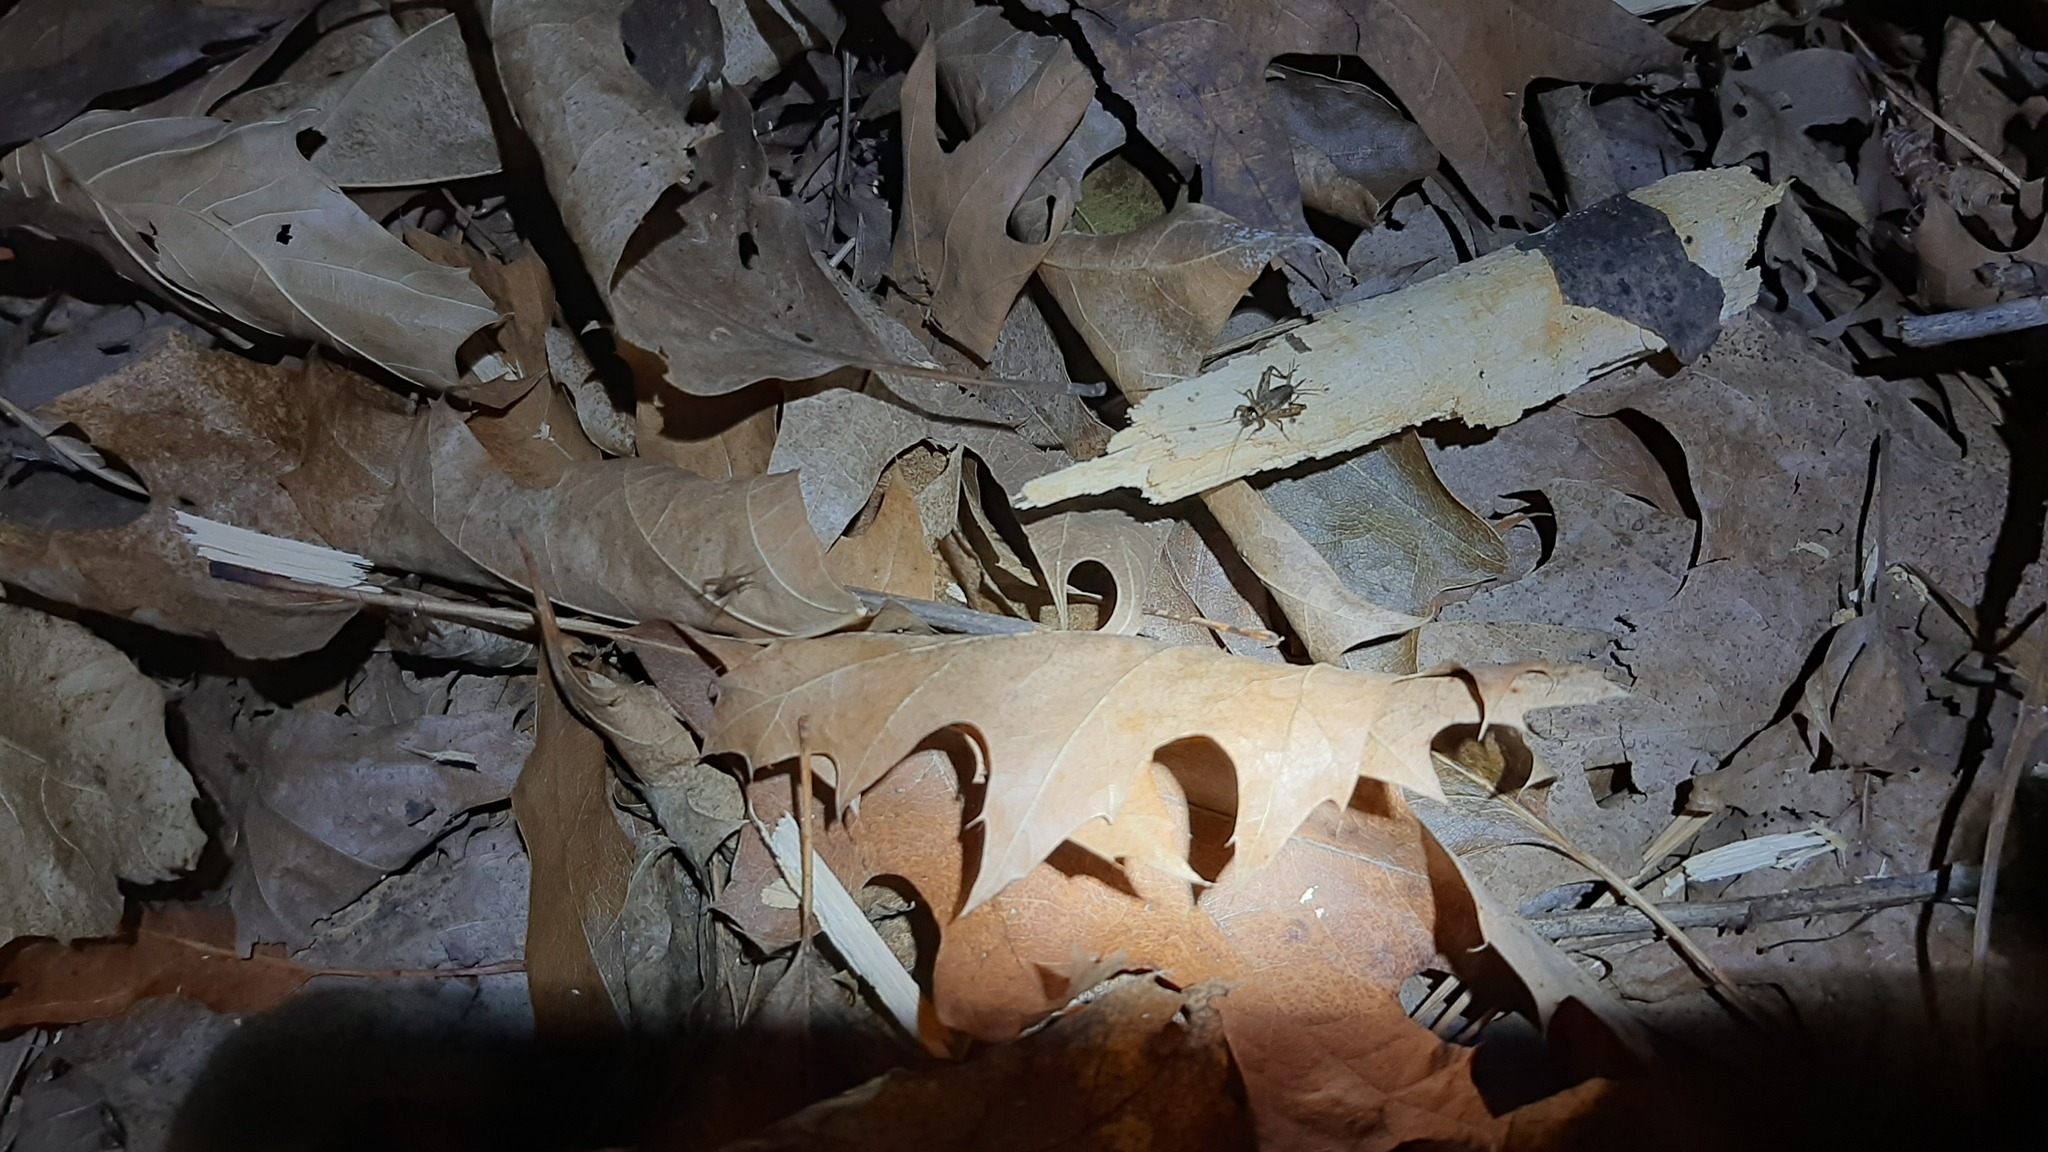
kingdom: Animalia
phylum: Arthropoda
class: Insecta
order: Orthoptera
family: Trigonidiidae
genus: Nemobius
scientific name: Nemobius sylvestris
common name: Wood-cricket
